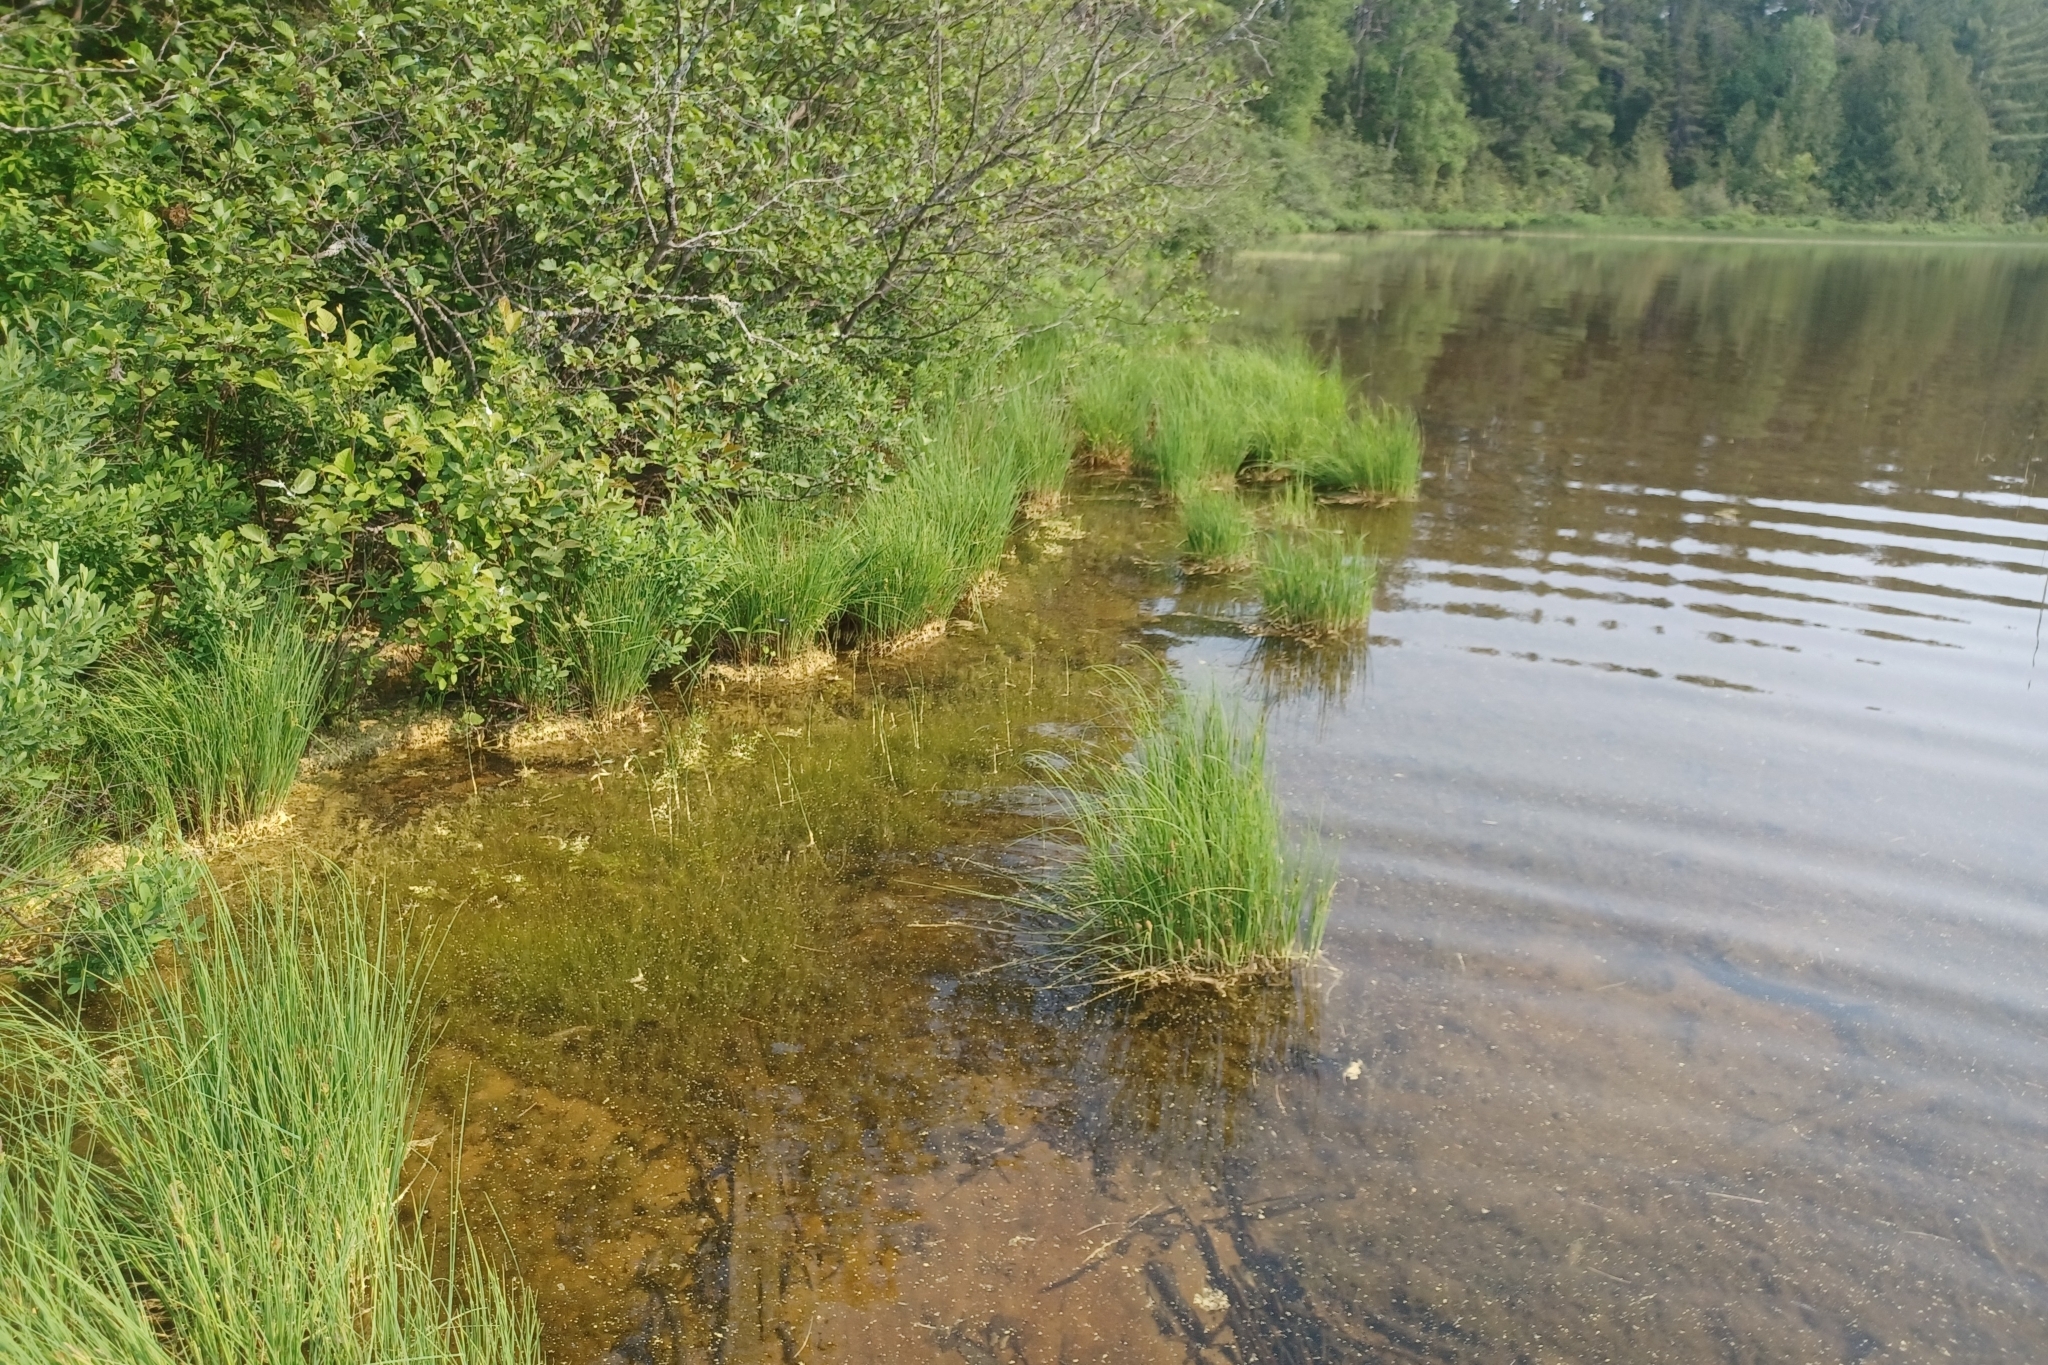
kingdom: Plantae
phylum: Tracheophyta
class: Liliopsida
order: Poales
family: Cyperaceae
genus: Carex
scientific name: Carex lenticularis
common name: Lakeshore sedge
